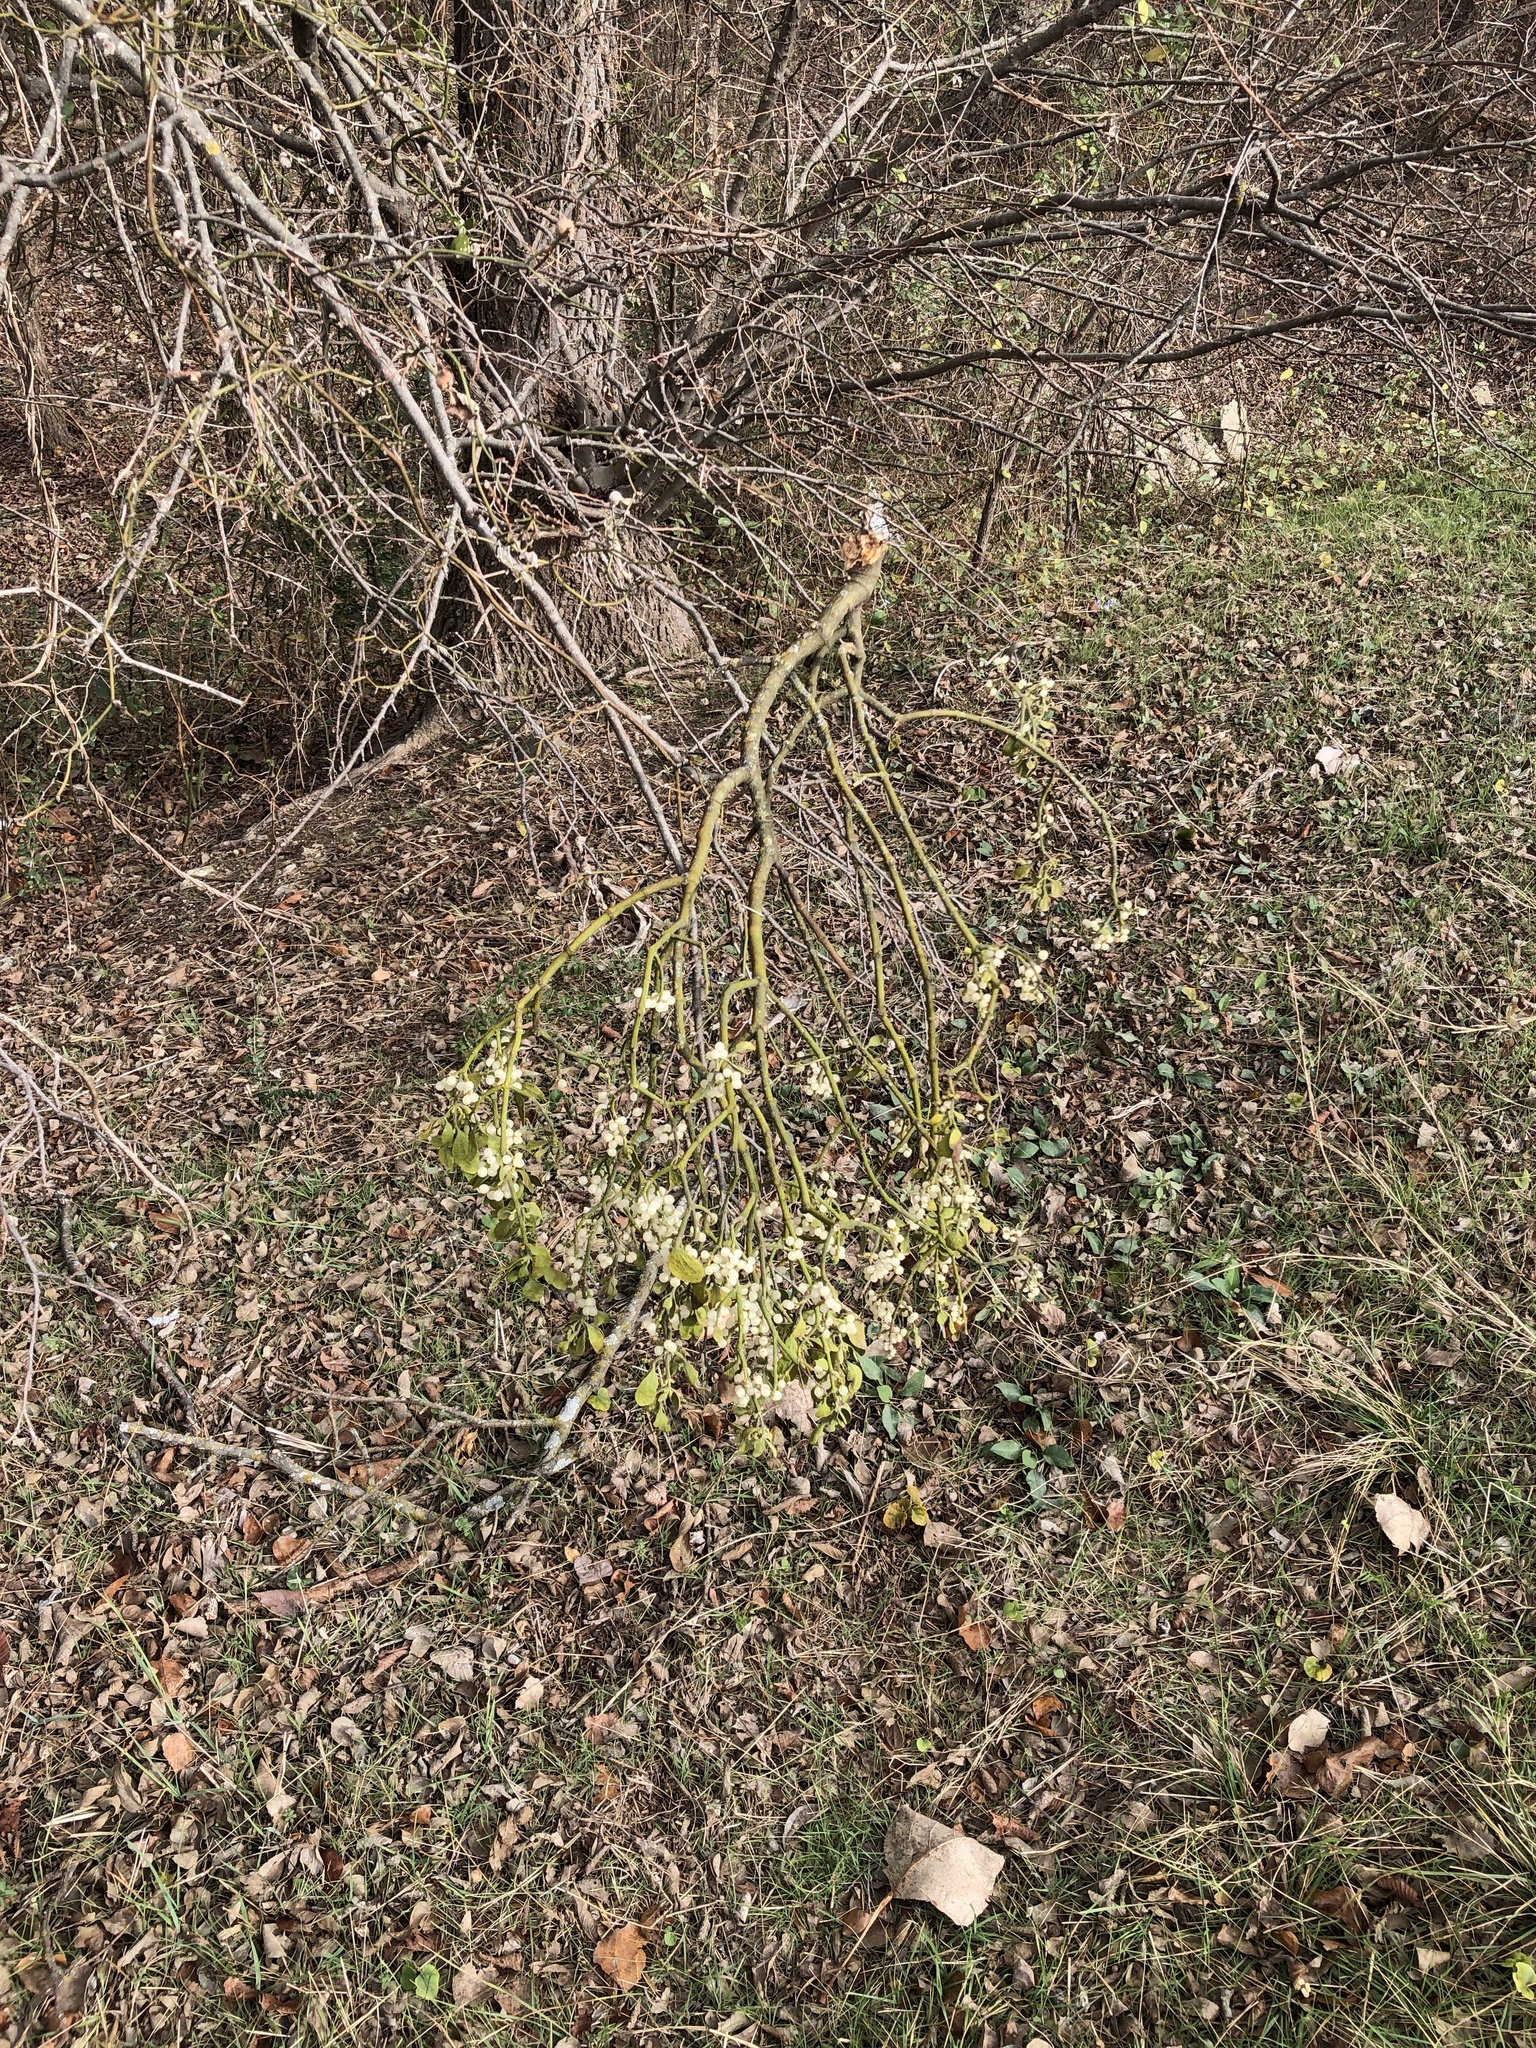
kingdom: Plantae
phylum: Tracheophyta
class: Magnoliopsida
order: Santalales
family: Viscaceae
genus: Phoradendron
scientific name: Phoradendron leucarpum
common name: Pacific mistletoe
